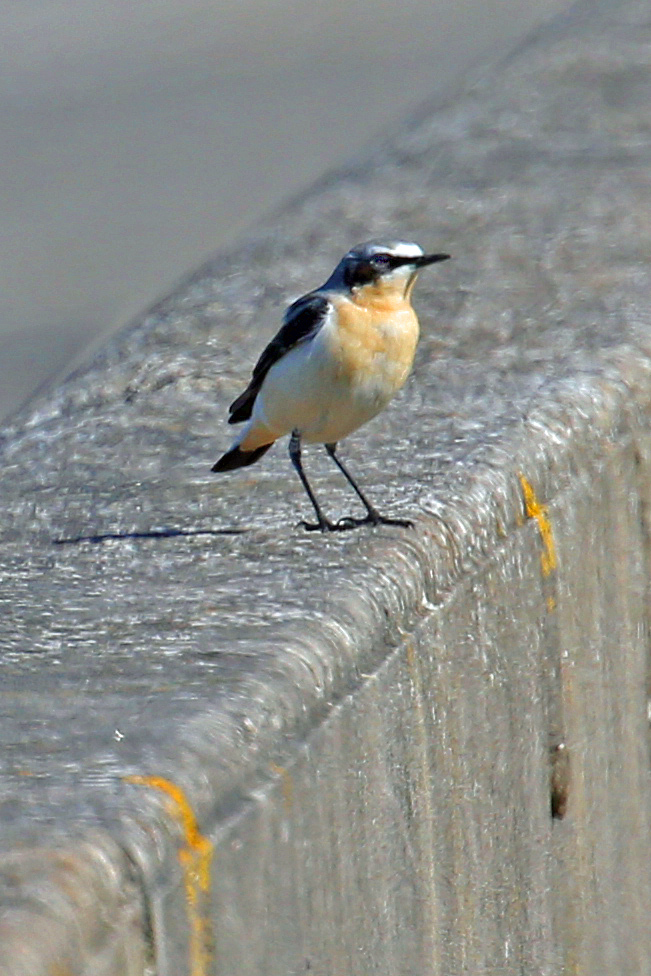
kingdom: Animalia
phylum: Chordata
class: Aves
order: Passeriformes
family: Muscicapidae
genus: Oenanthe
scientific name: Oenanthe oenanthe
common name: Northern wheatear
